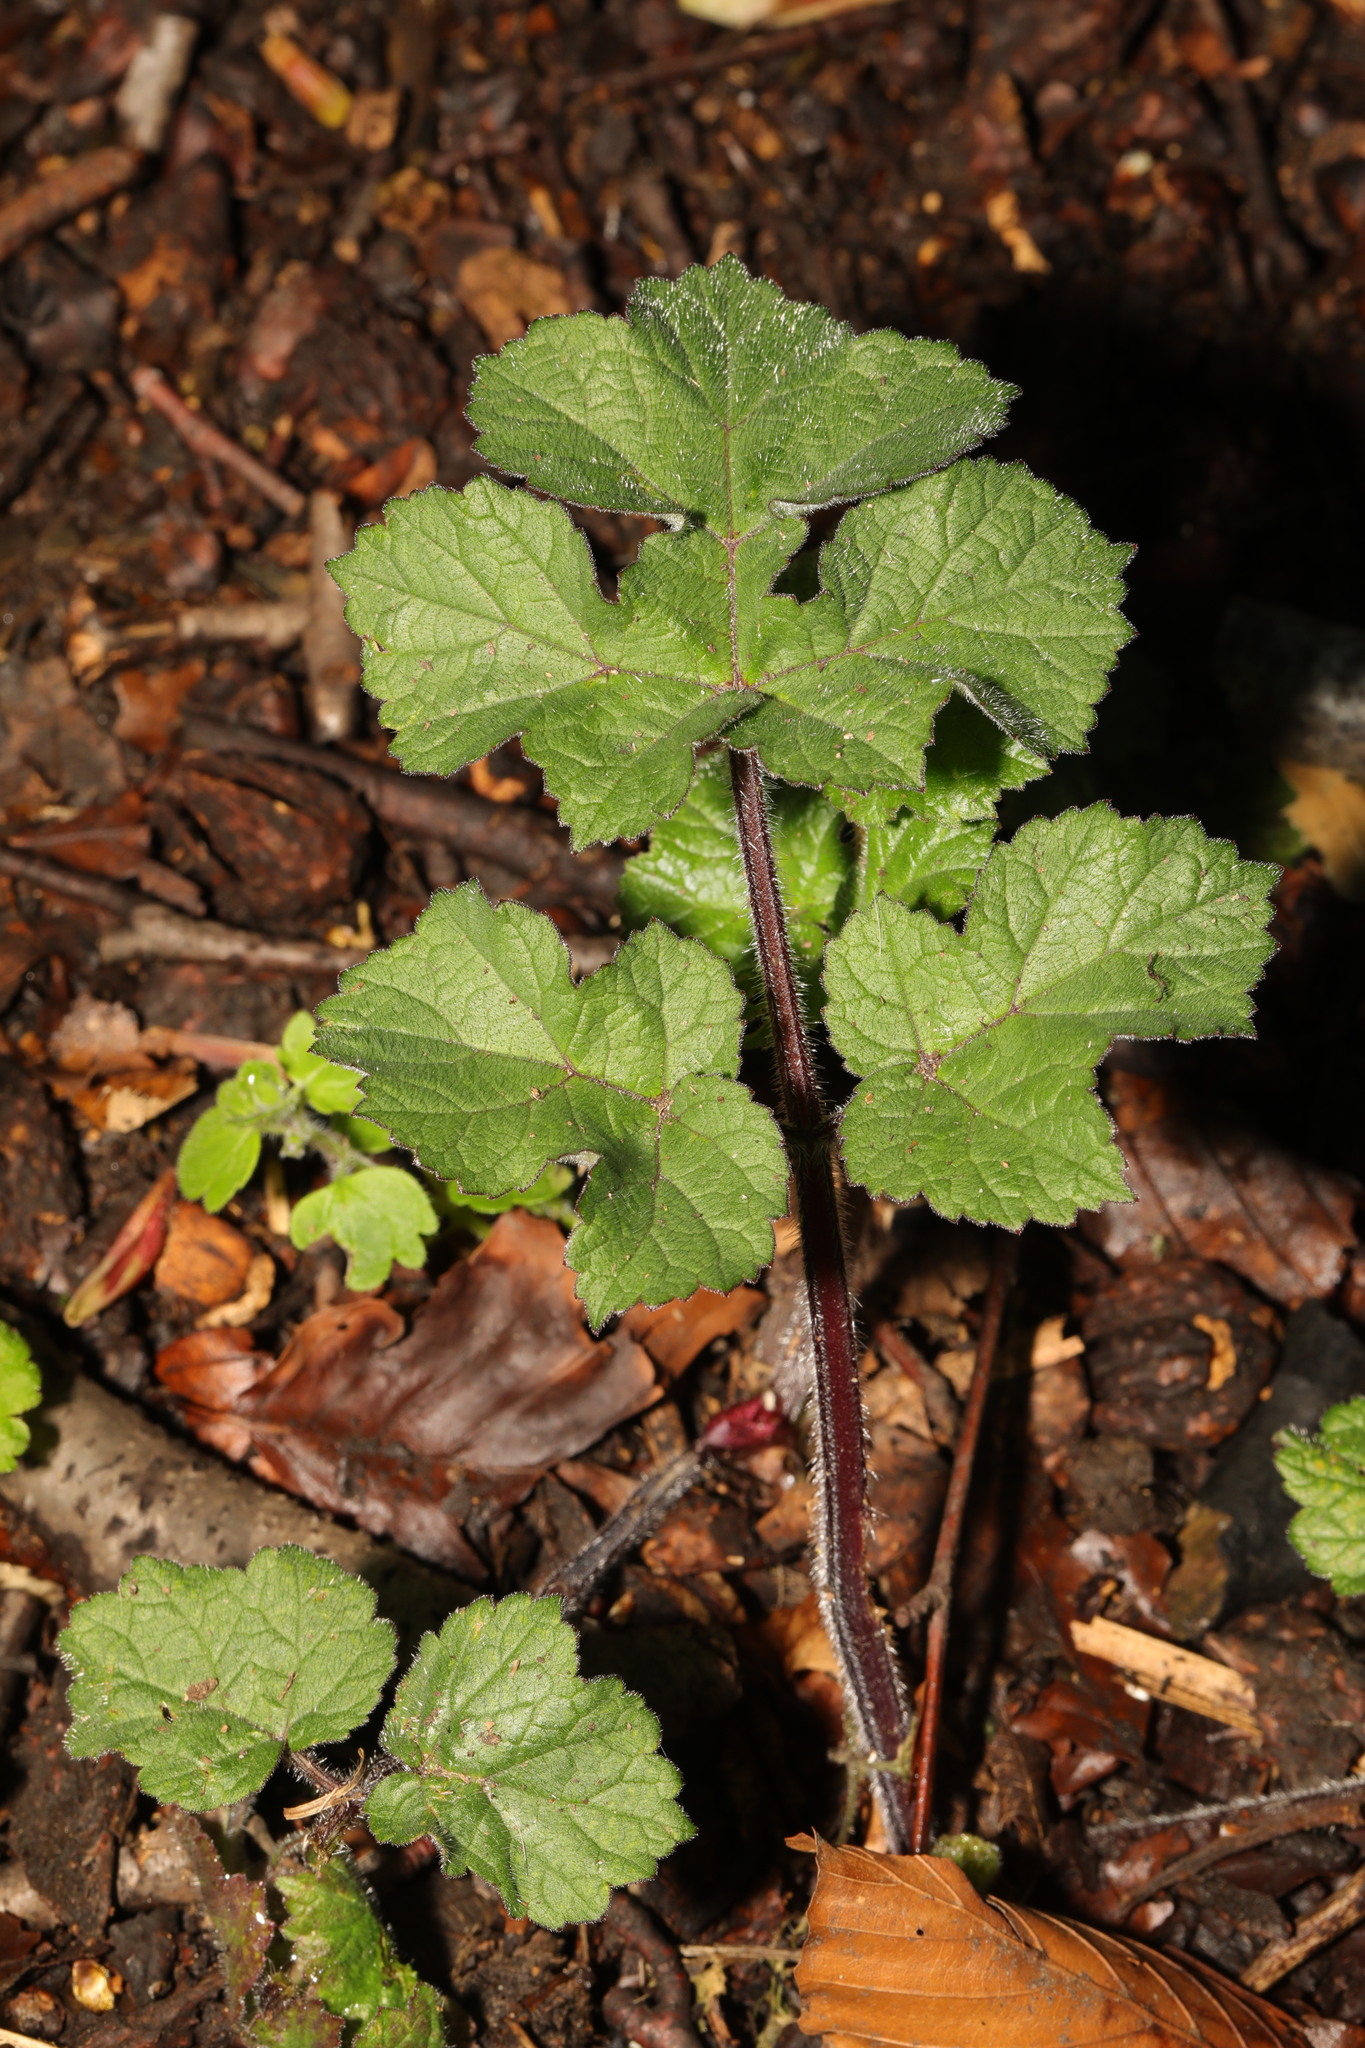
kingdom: Plantae
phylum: Tracheophyta
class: Magnoliopsida
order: Apiales
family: Apiaceae
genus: Heracleum
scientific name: Heracleum sphondylium
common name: Hogweed
